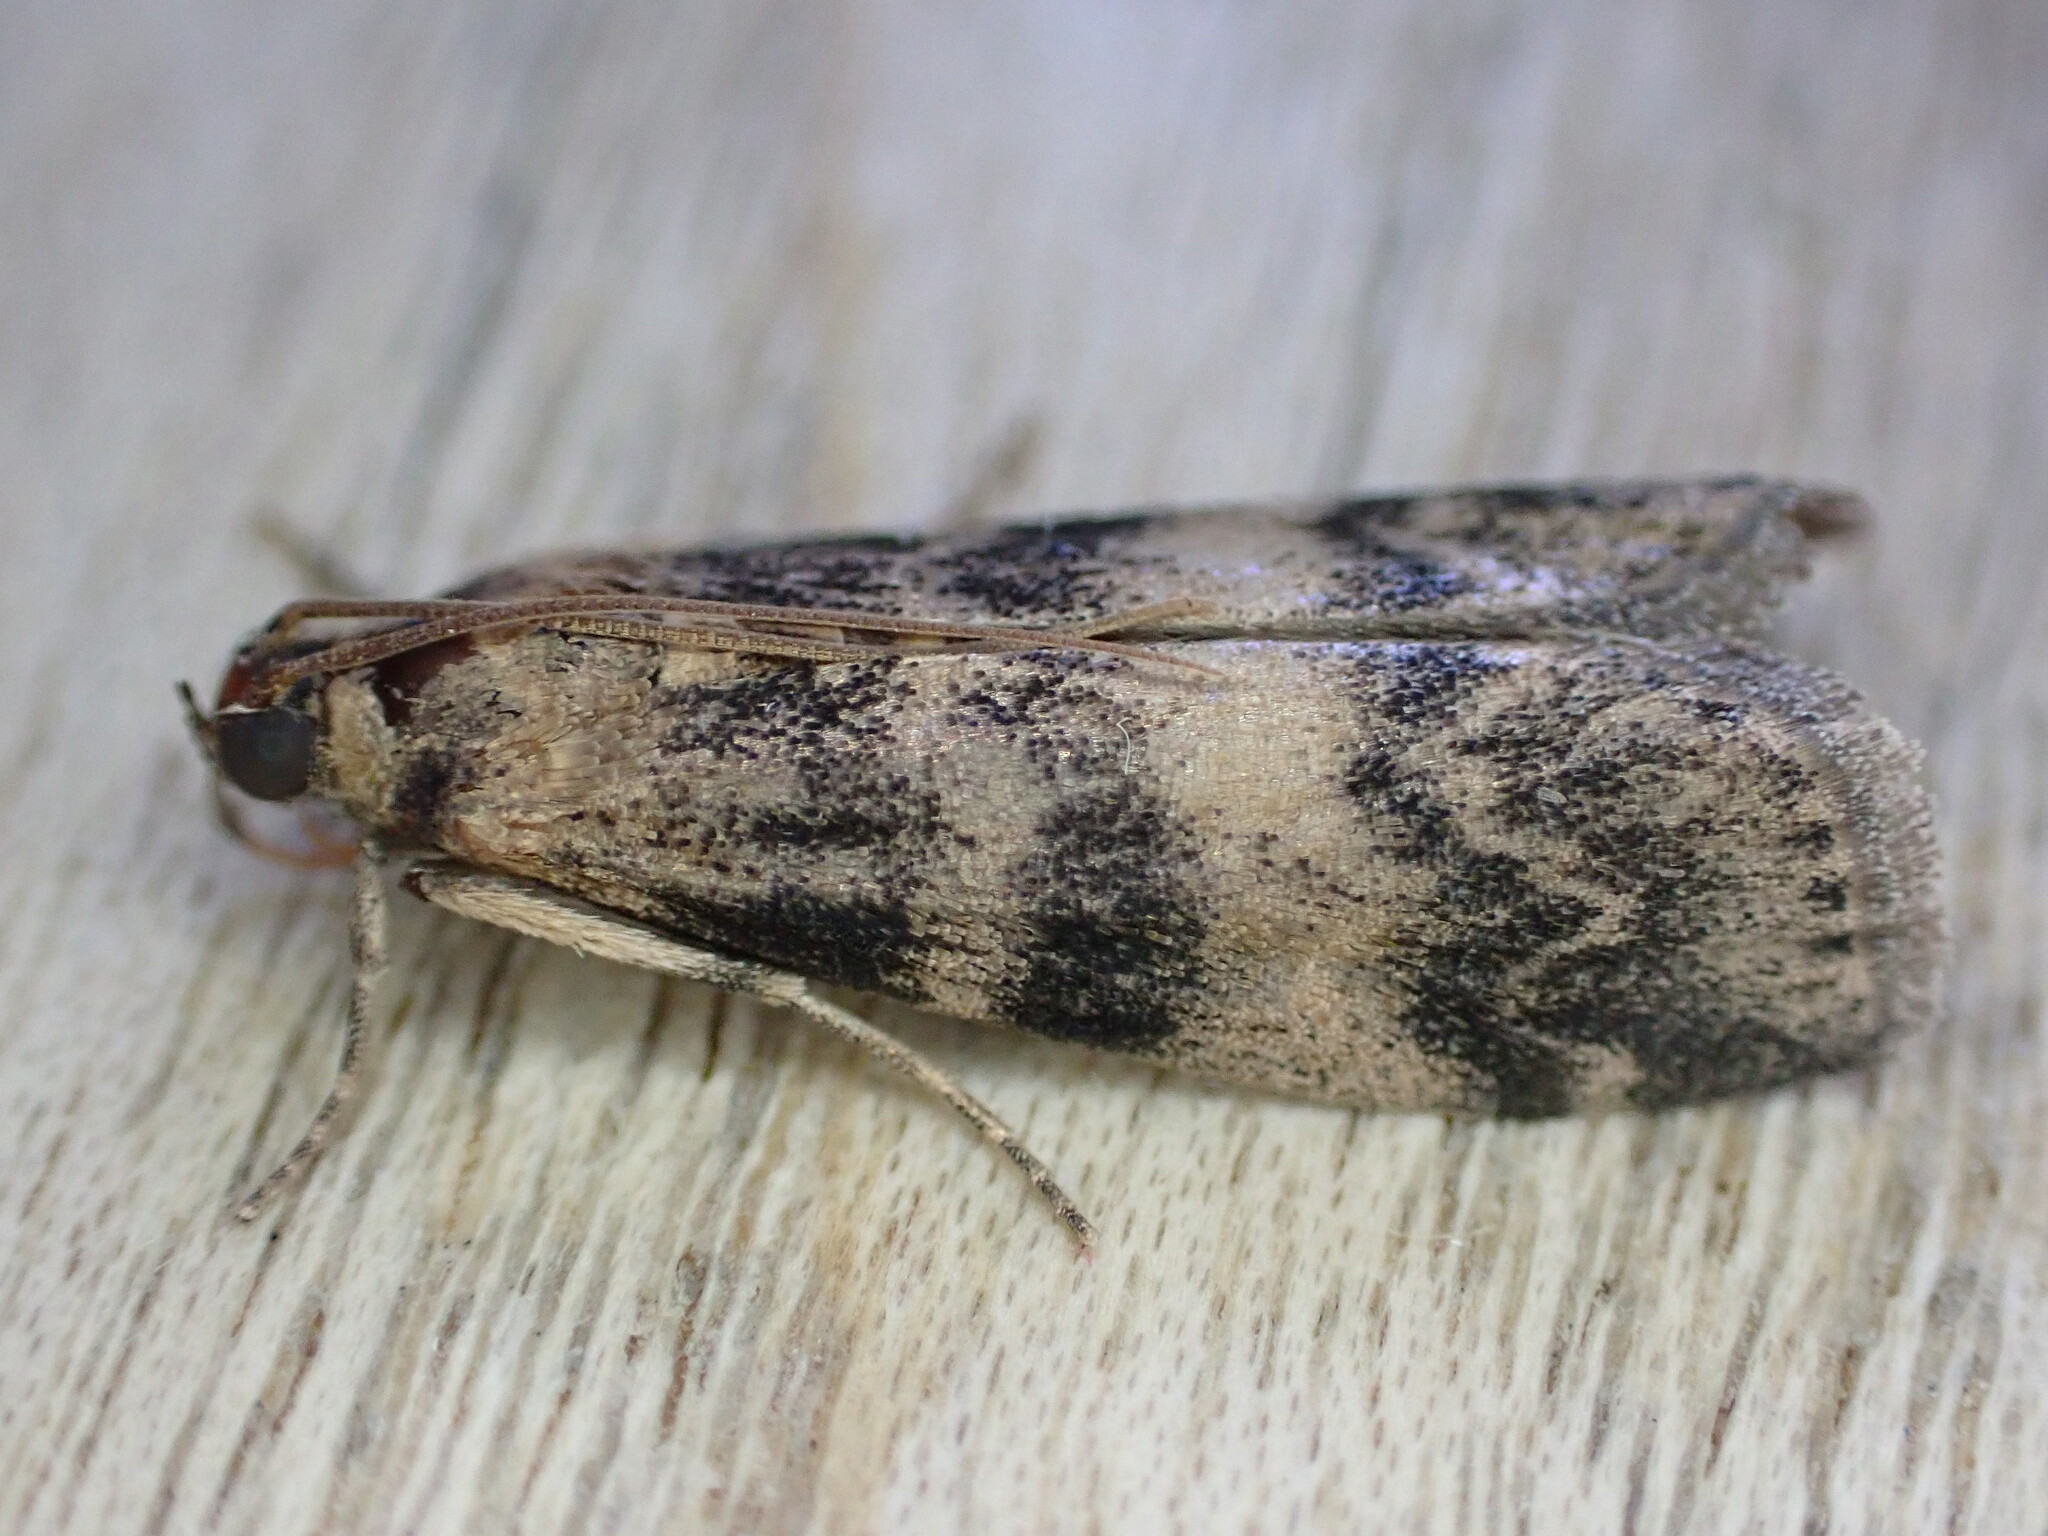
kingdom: Animalia
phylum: Arthropoda
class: Insecta
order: Lepidoptera
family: Pyralidae
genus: Euzophera
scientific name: Euzophera pinguis
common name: Ash-bark knot-horn
